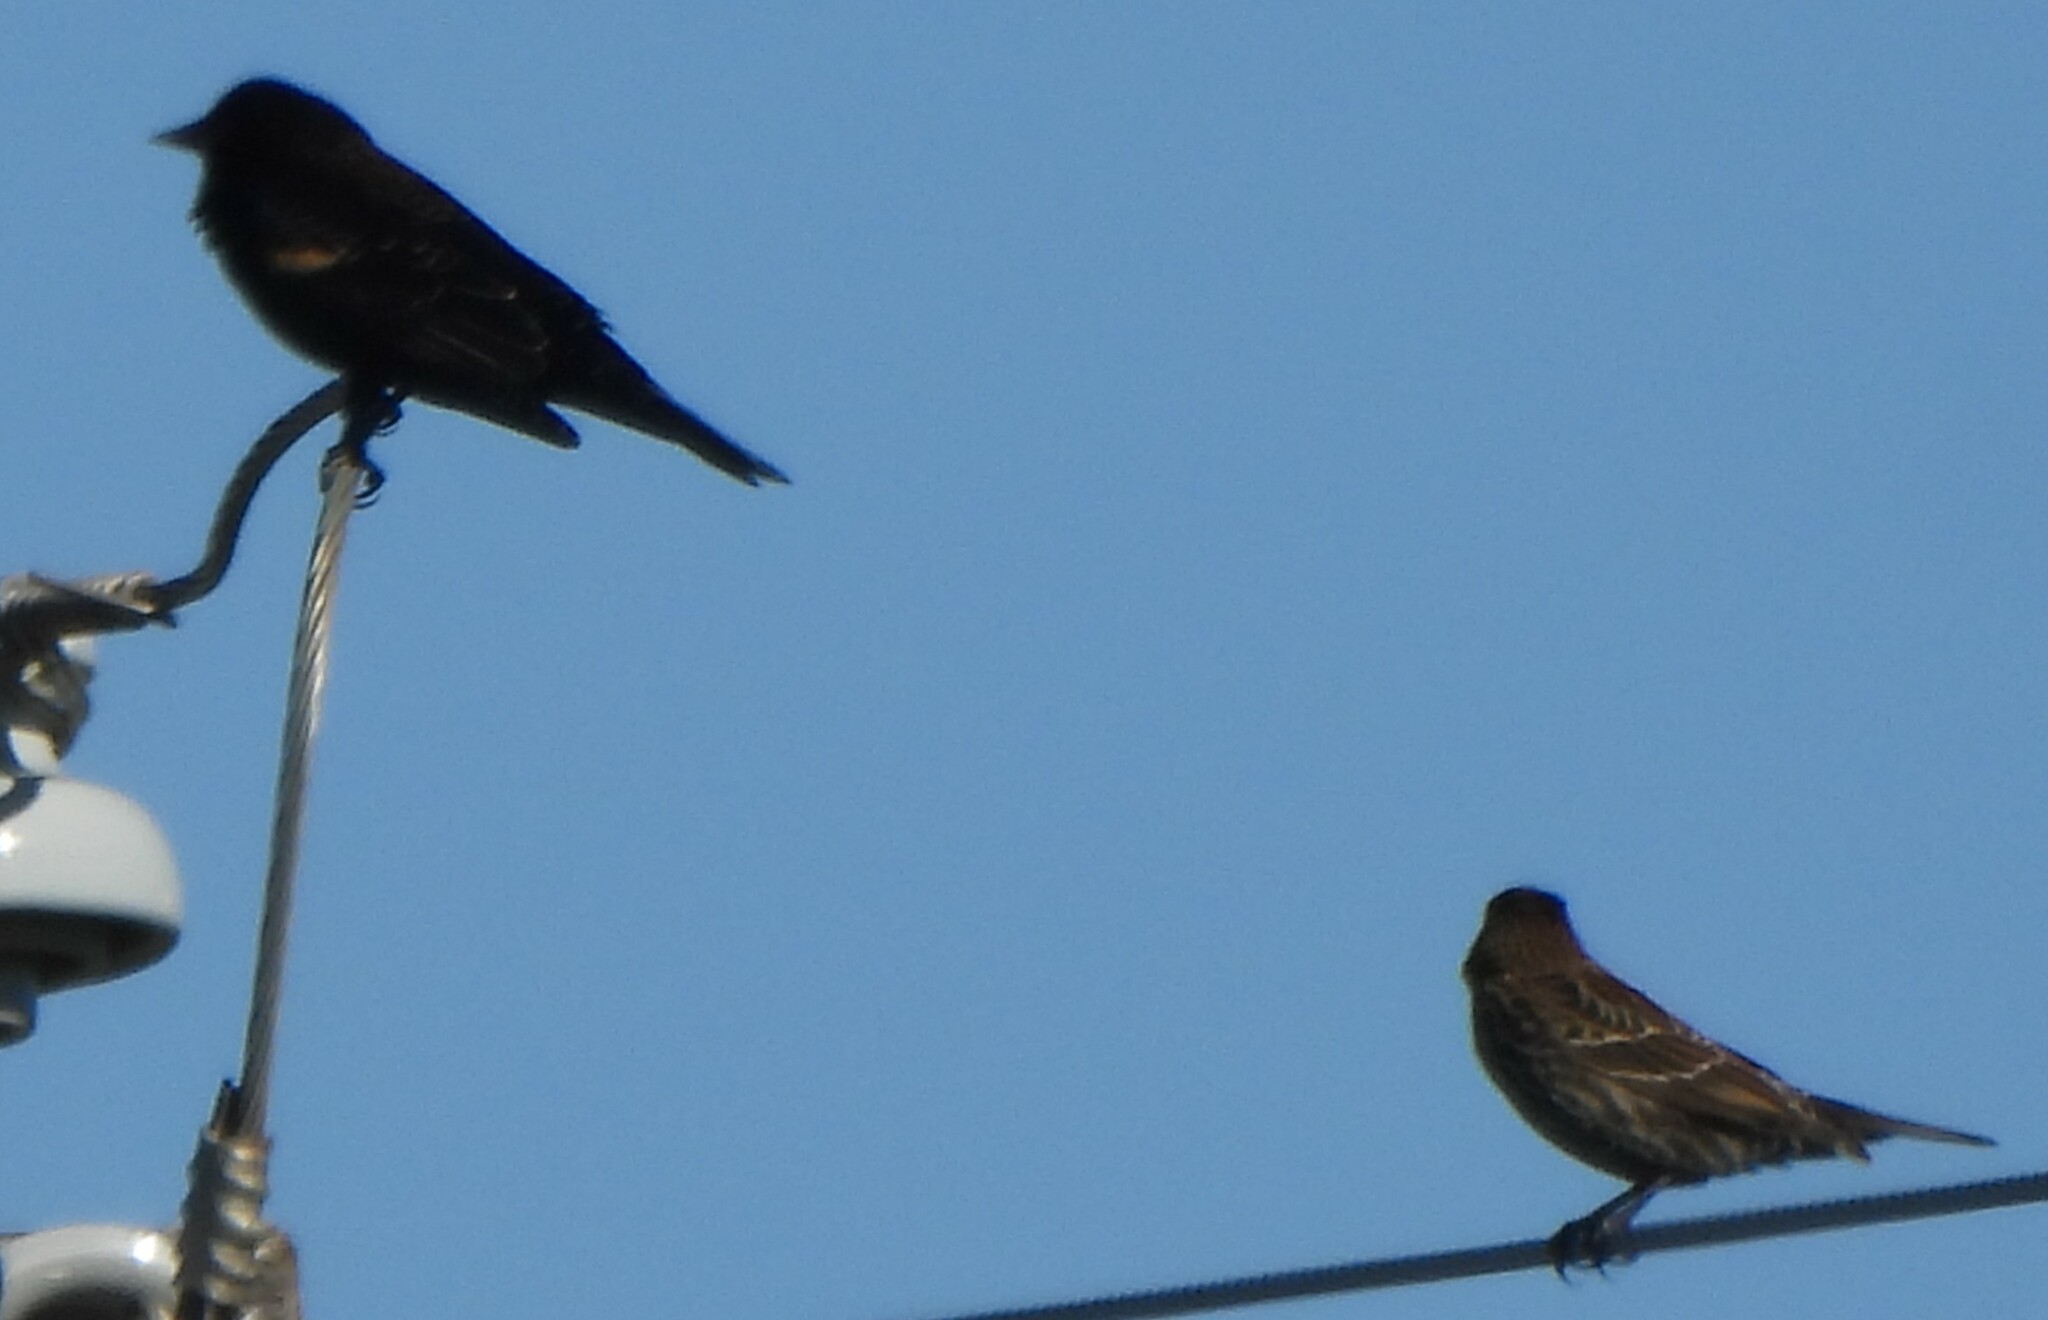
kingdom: Animalia
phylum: Chordata
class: Aves
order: Passeriformes
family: Icteridae
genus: Agelaius
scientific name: Agelaius phoeniceus
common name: Red-winged blackbird
